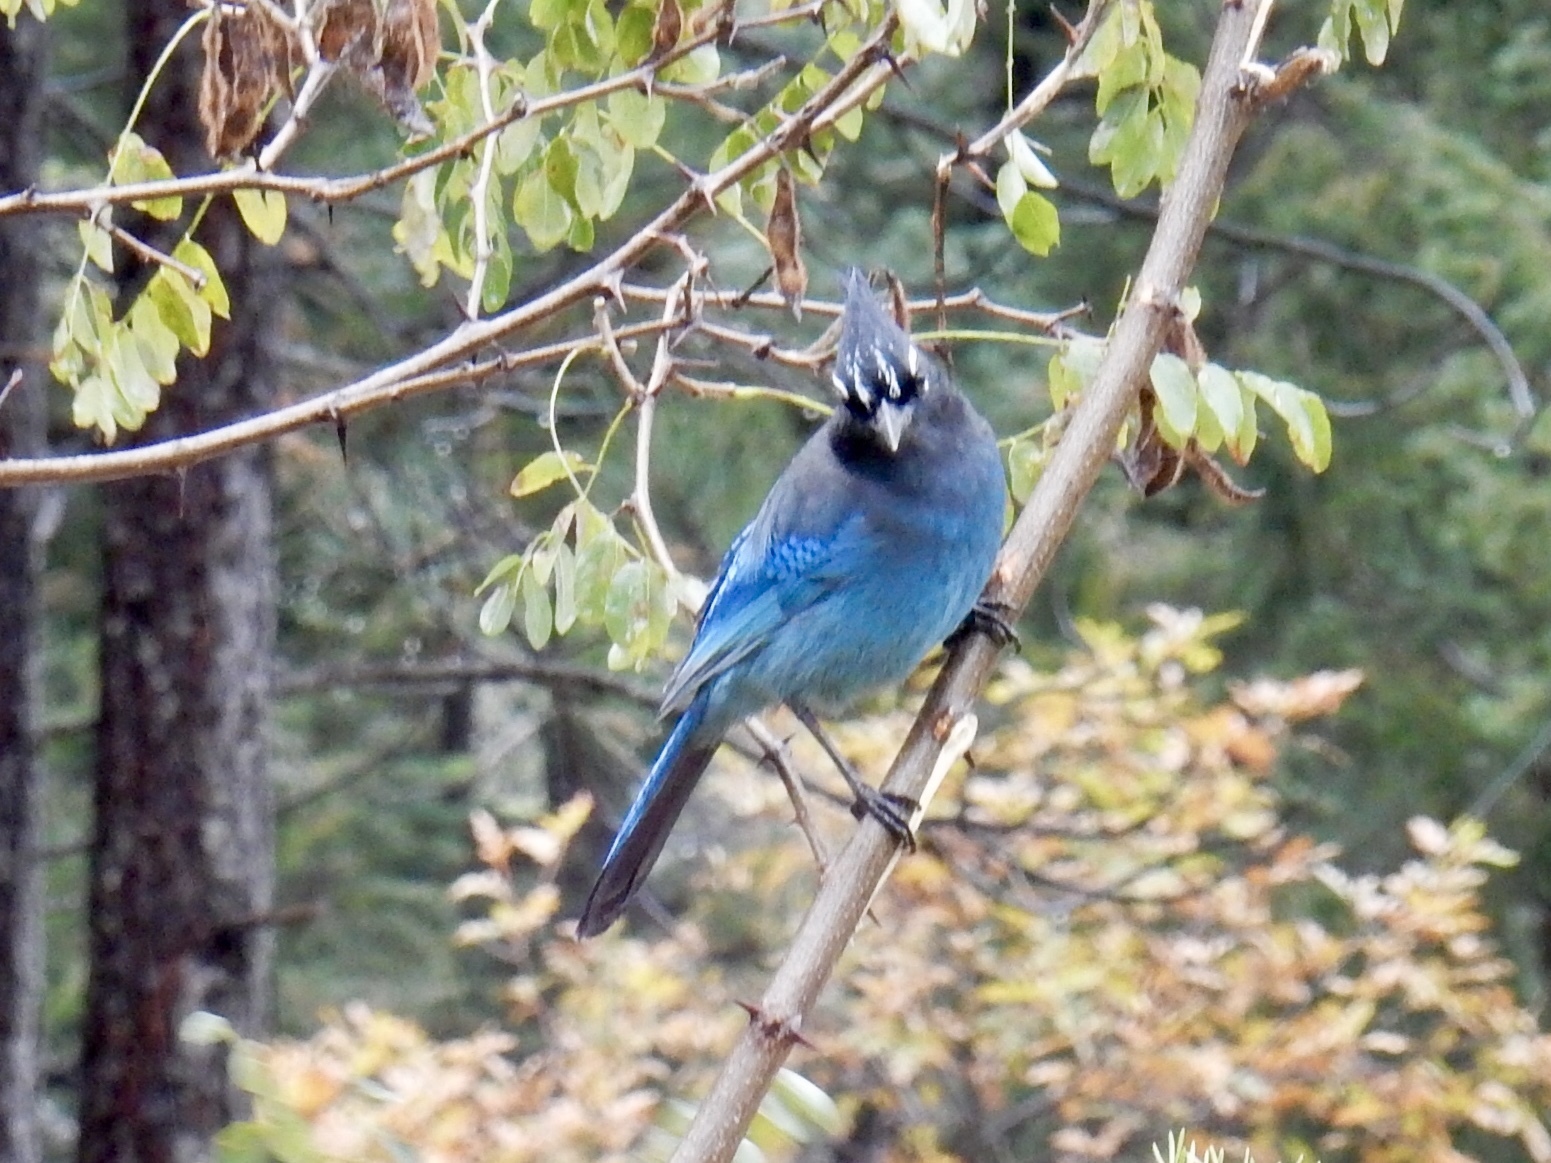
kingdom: Animalia
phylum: Chordata
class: Aves
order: Passeriformes
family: Corvidae
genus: Cyanocitta
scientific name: Cyanocitta stelleri
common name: Steller's jay
